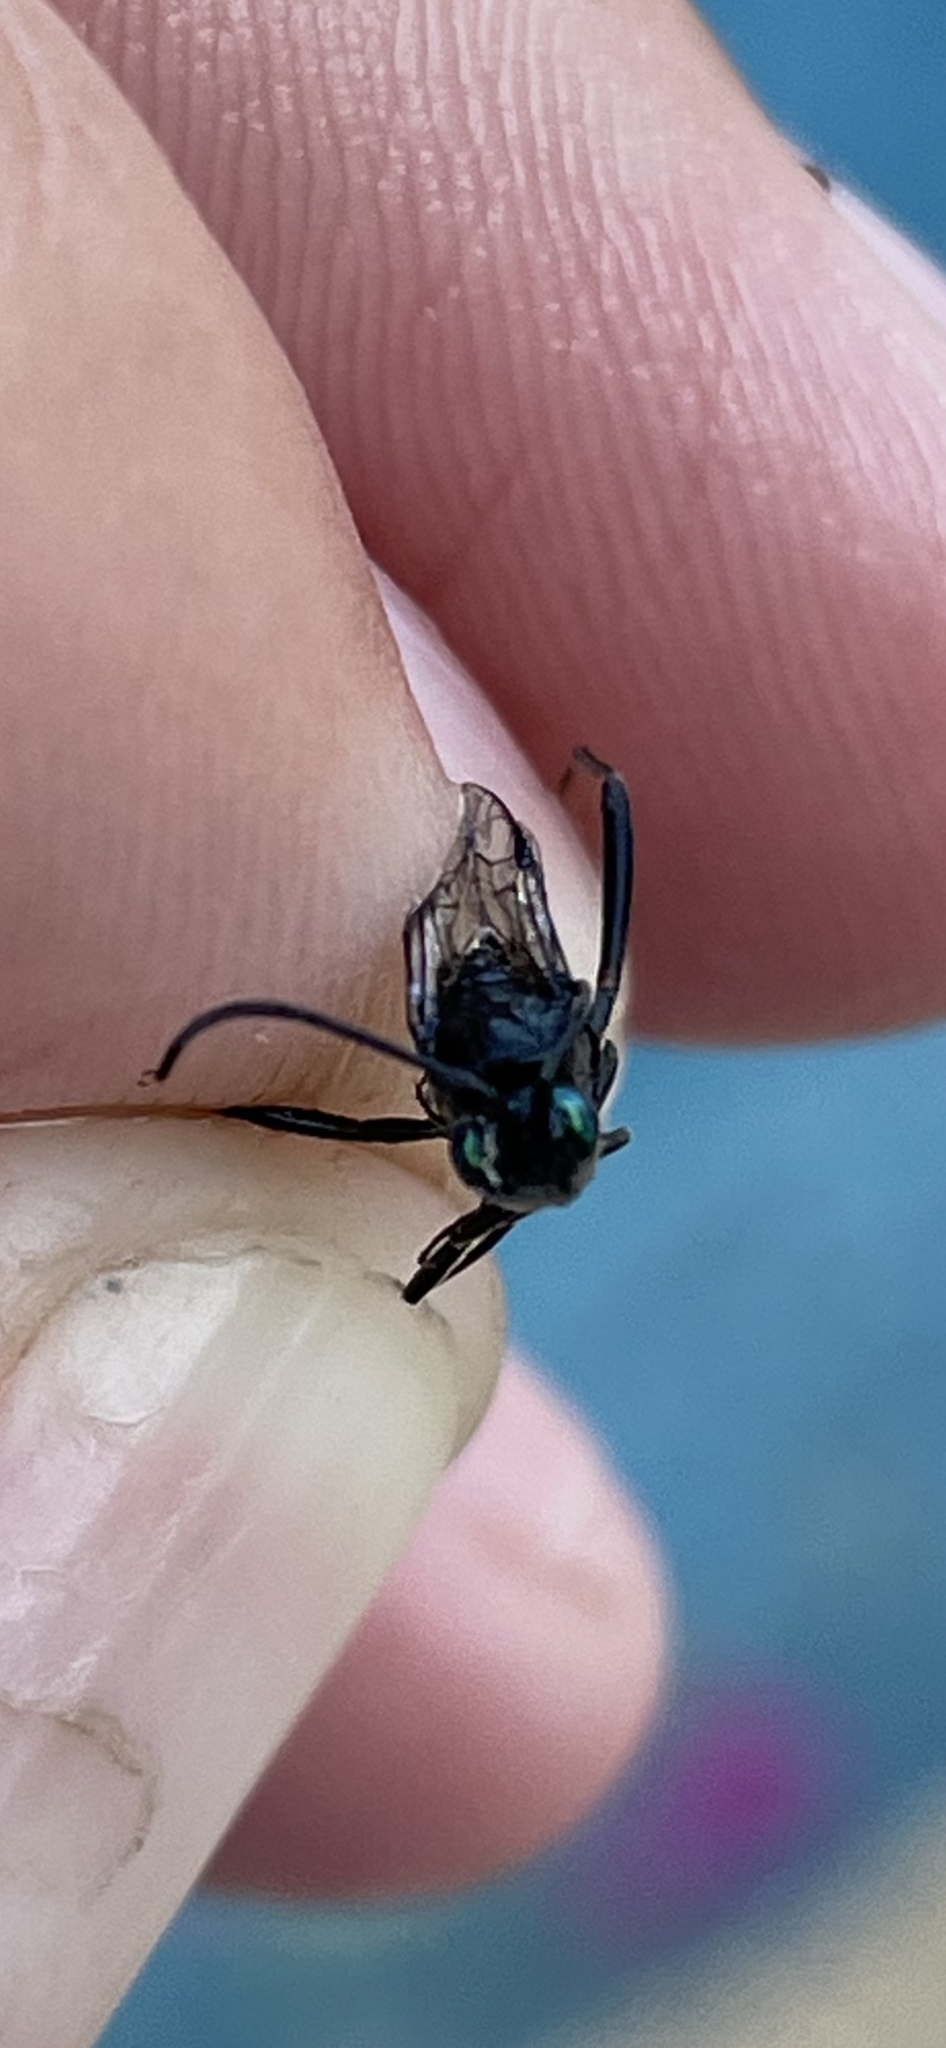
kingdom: Animalia
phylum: Arthropoda
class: Insecta
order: Hymenoptera
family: Evaniidae
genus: Evania
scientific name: Evania appendigaster
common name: Ensign wasp
